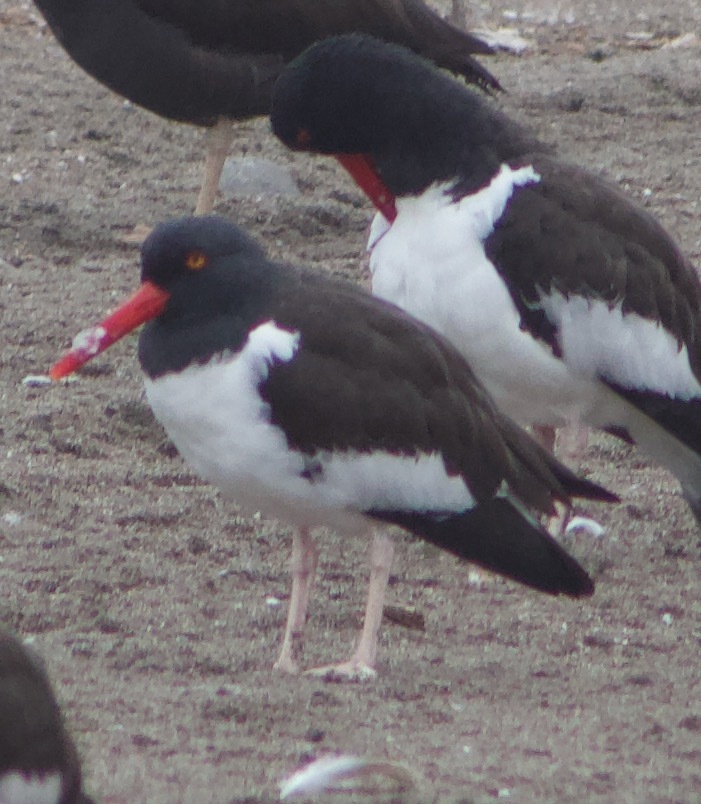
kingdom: Animalia
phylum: Chordata
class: Aves
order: Charadriiformes
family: Haematopodidae
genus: Haematopus
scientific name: Haematopus palliatus
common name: American oystercatcher
